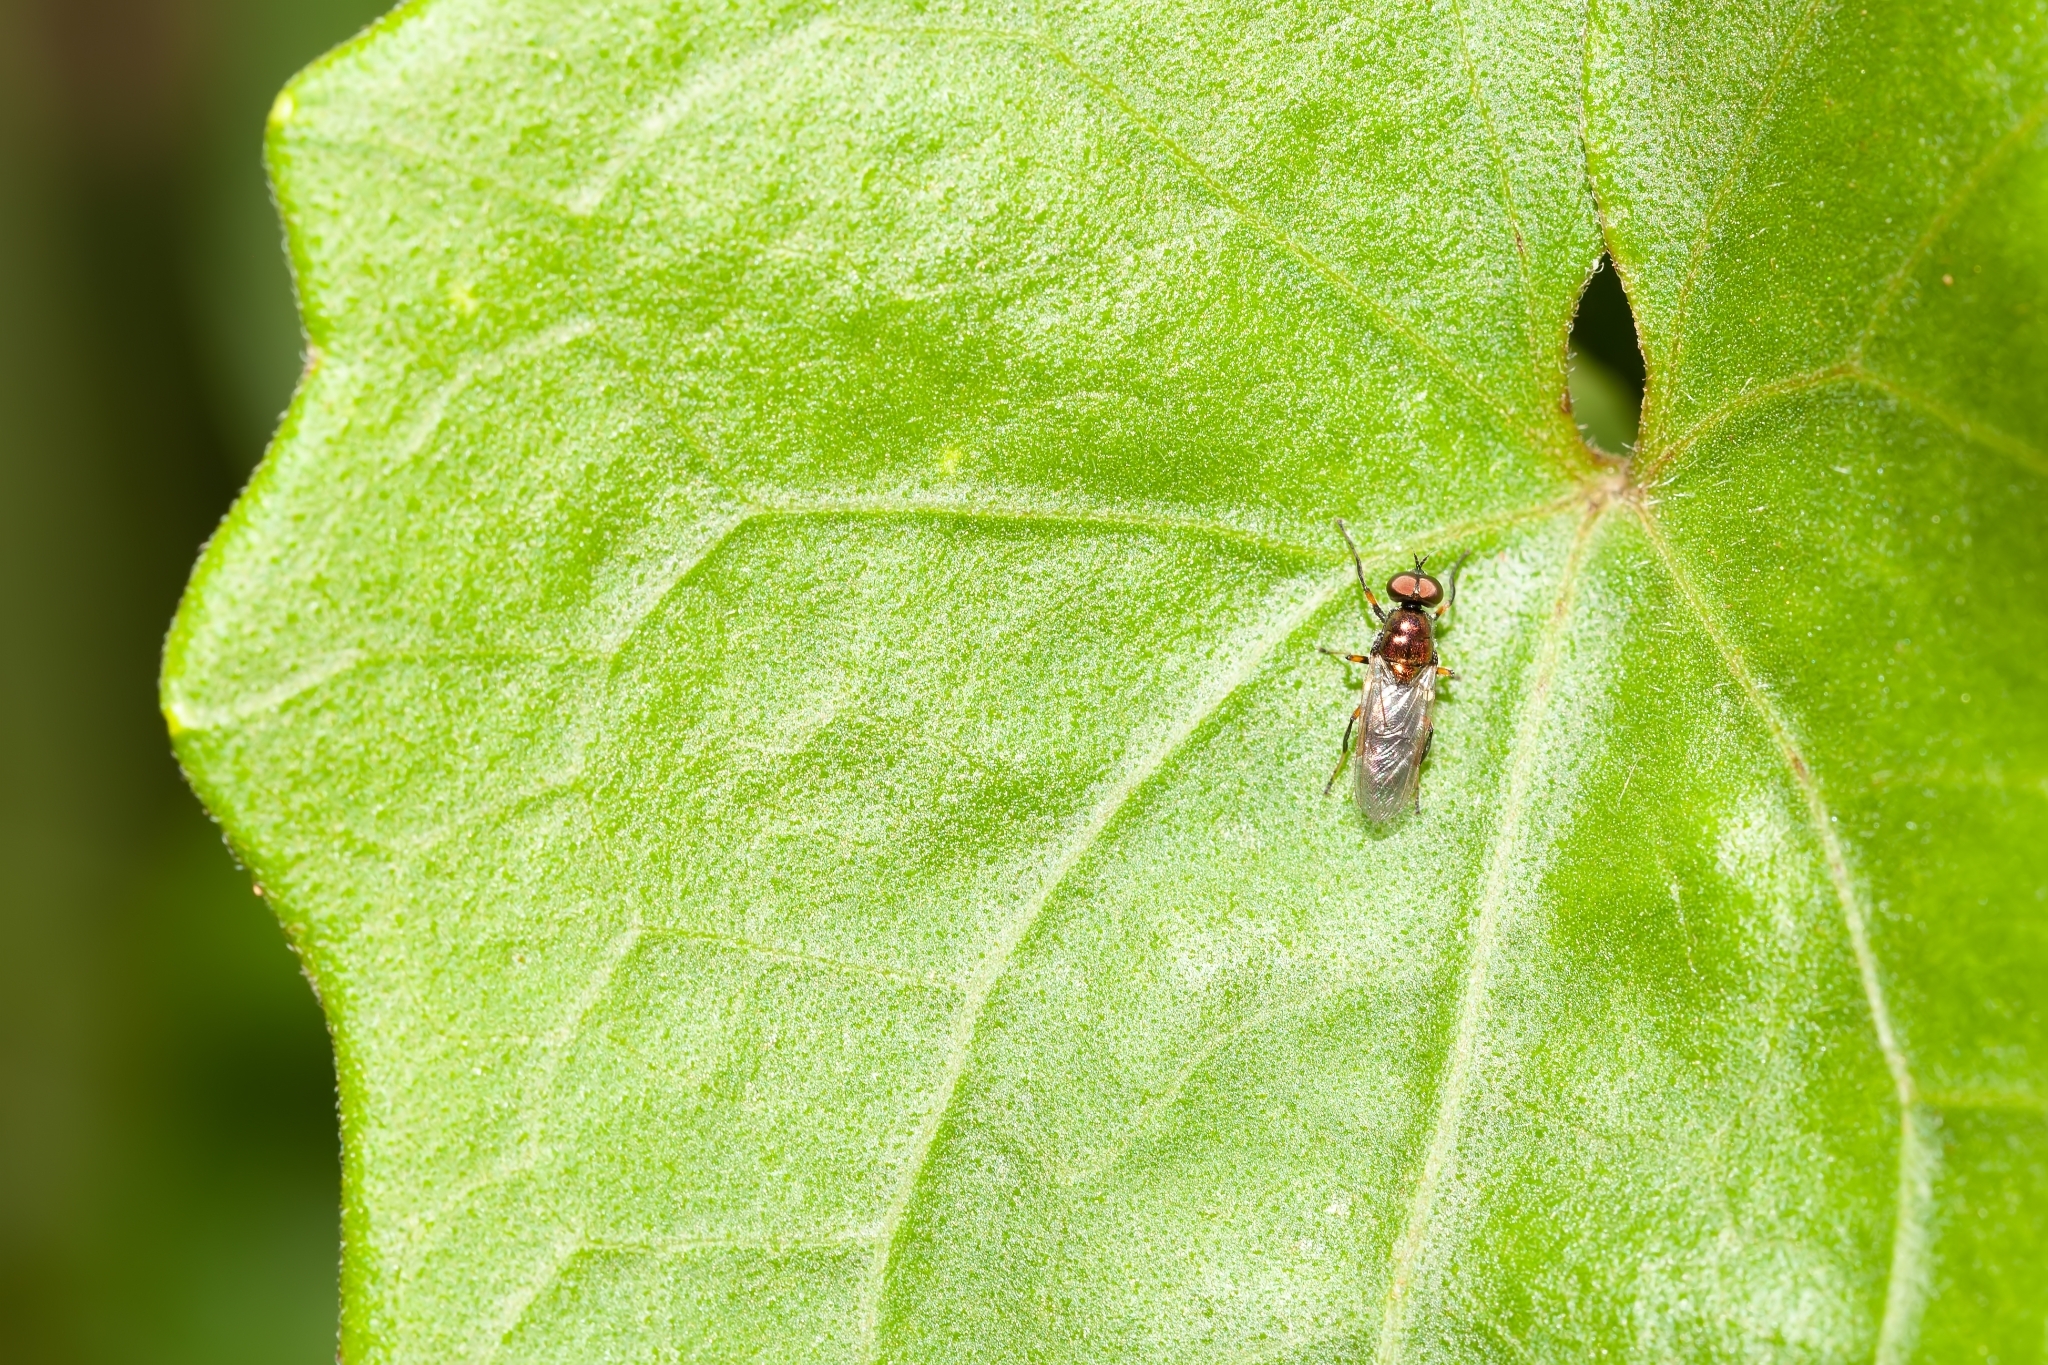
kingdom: Animalia
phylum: Arthropoda
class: Insecta
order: Diptera
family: Stratiomyidae
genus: Nothomyia
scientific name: Nothomyia calopus
